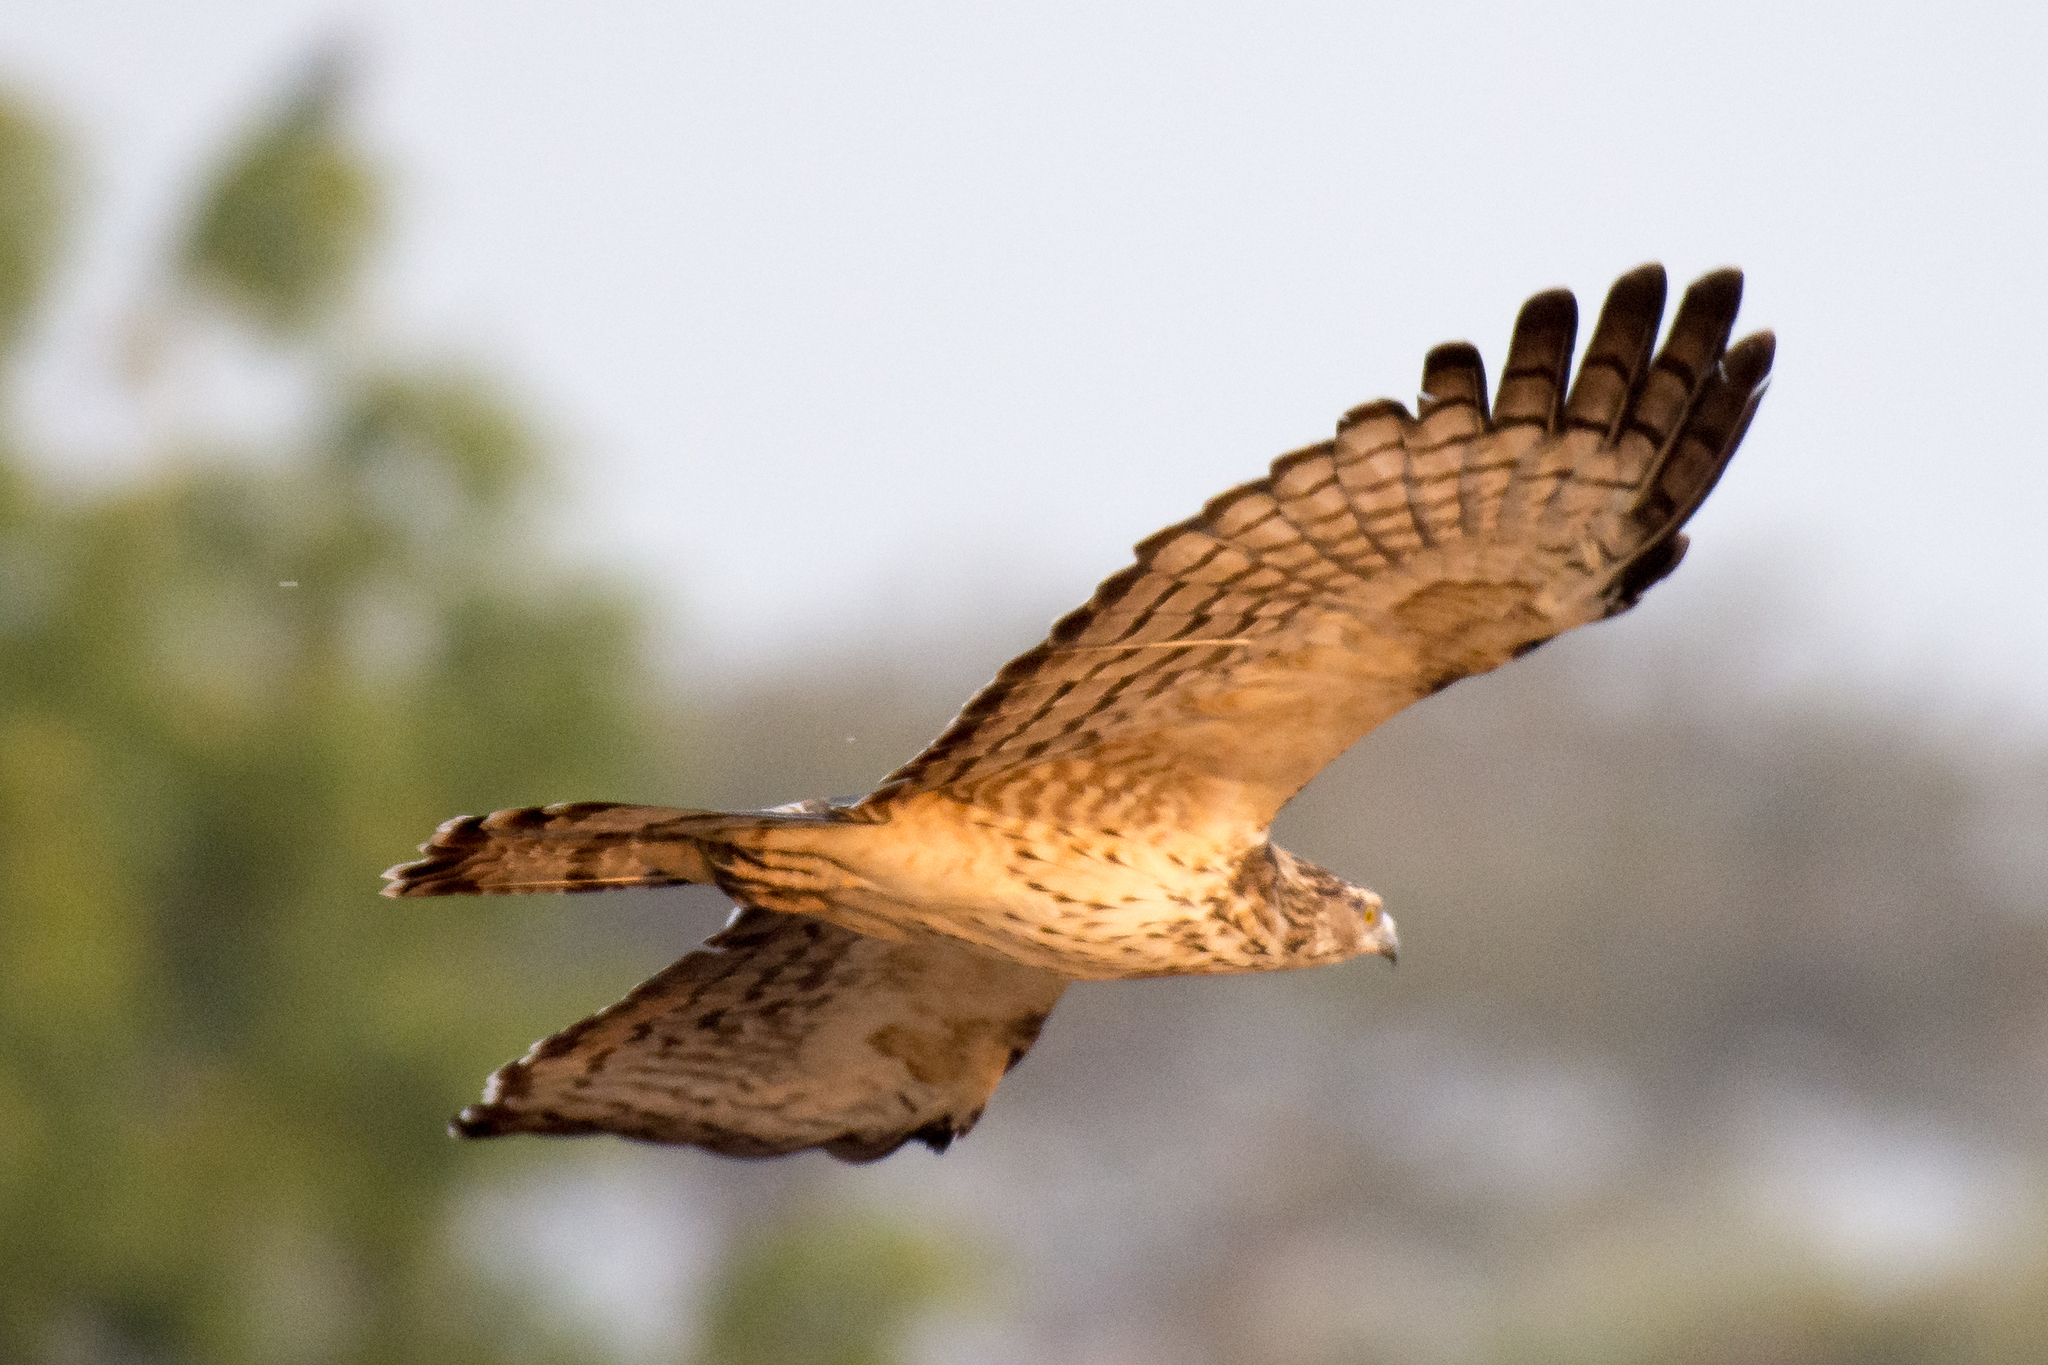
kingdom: Animalia
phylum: Chordata
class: Aves
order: Accipitriformes
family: Accipitridae
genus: Pernis
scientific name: Pernis ptilorhynchus
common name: Crested honey buzzard
